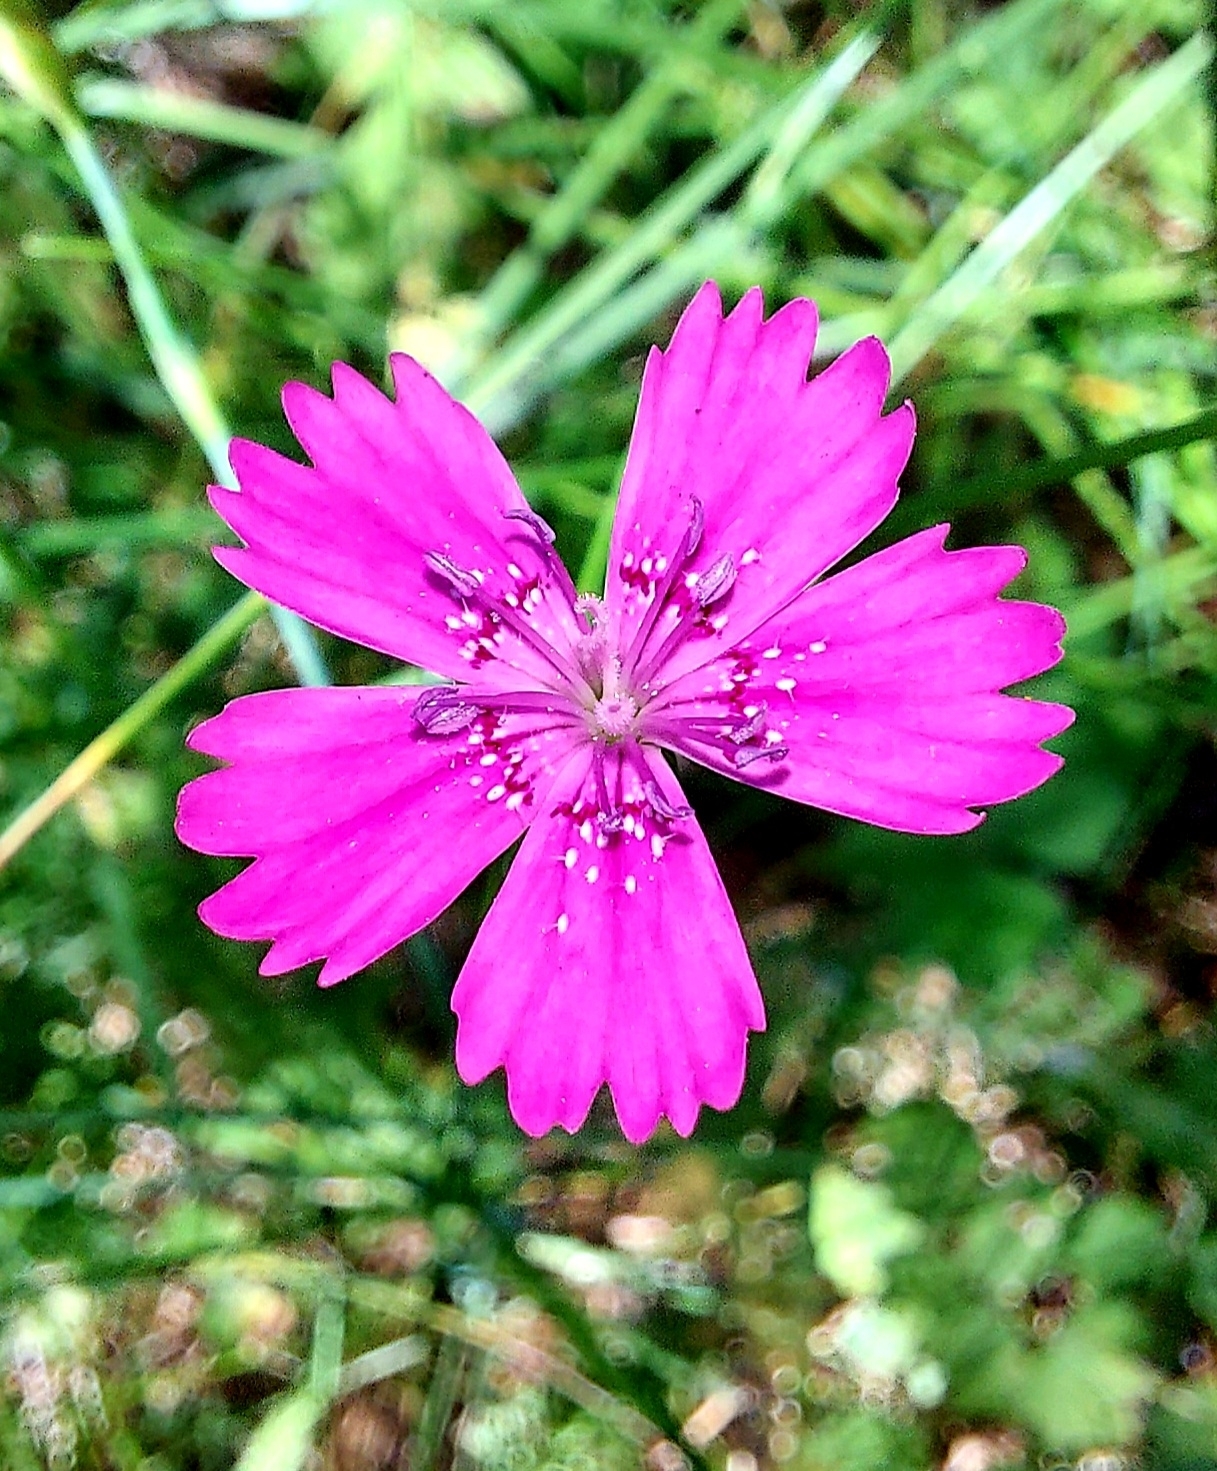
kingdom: Plantae
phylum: Tracheophyta
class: Magnoliopsida
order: Caryophyllales
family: Caryophyllaceae
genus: Dianthus
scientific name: Dianthus deltoides
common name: Maiden pink
